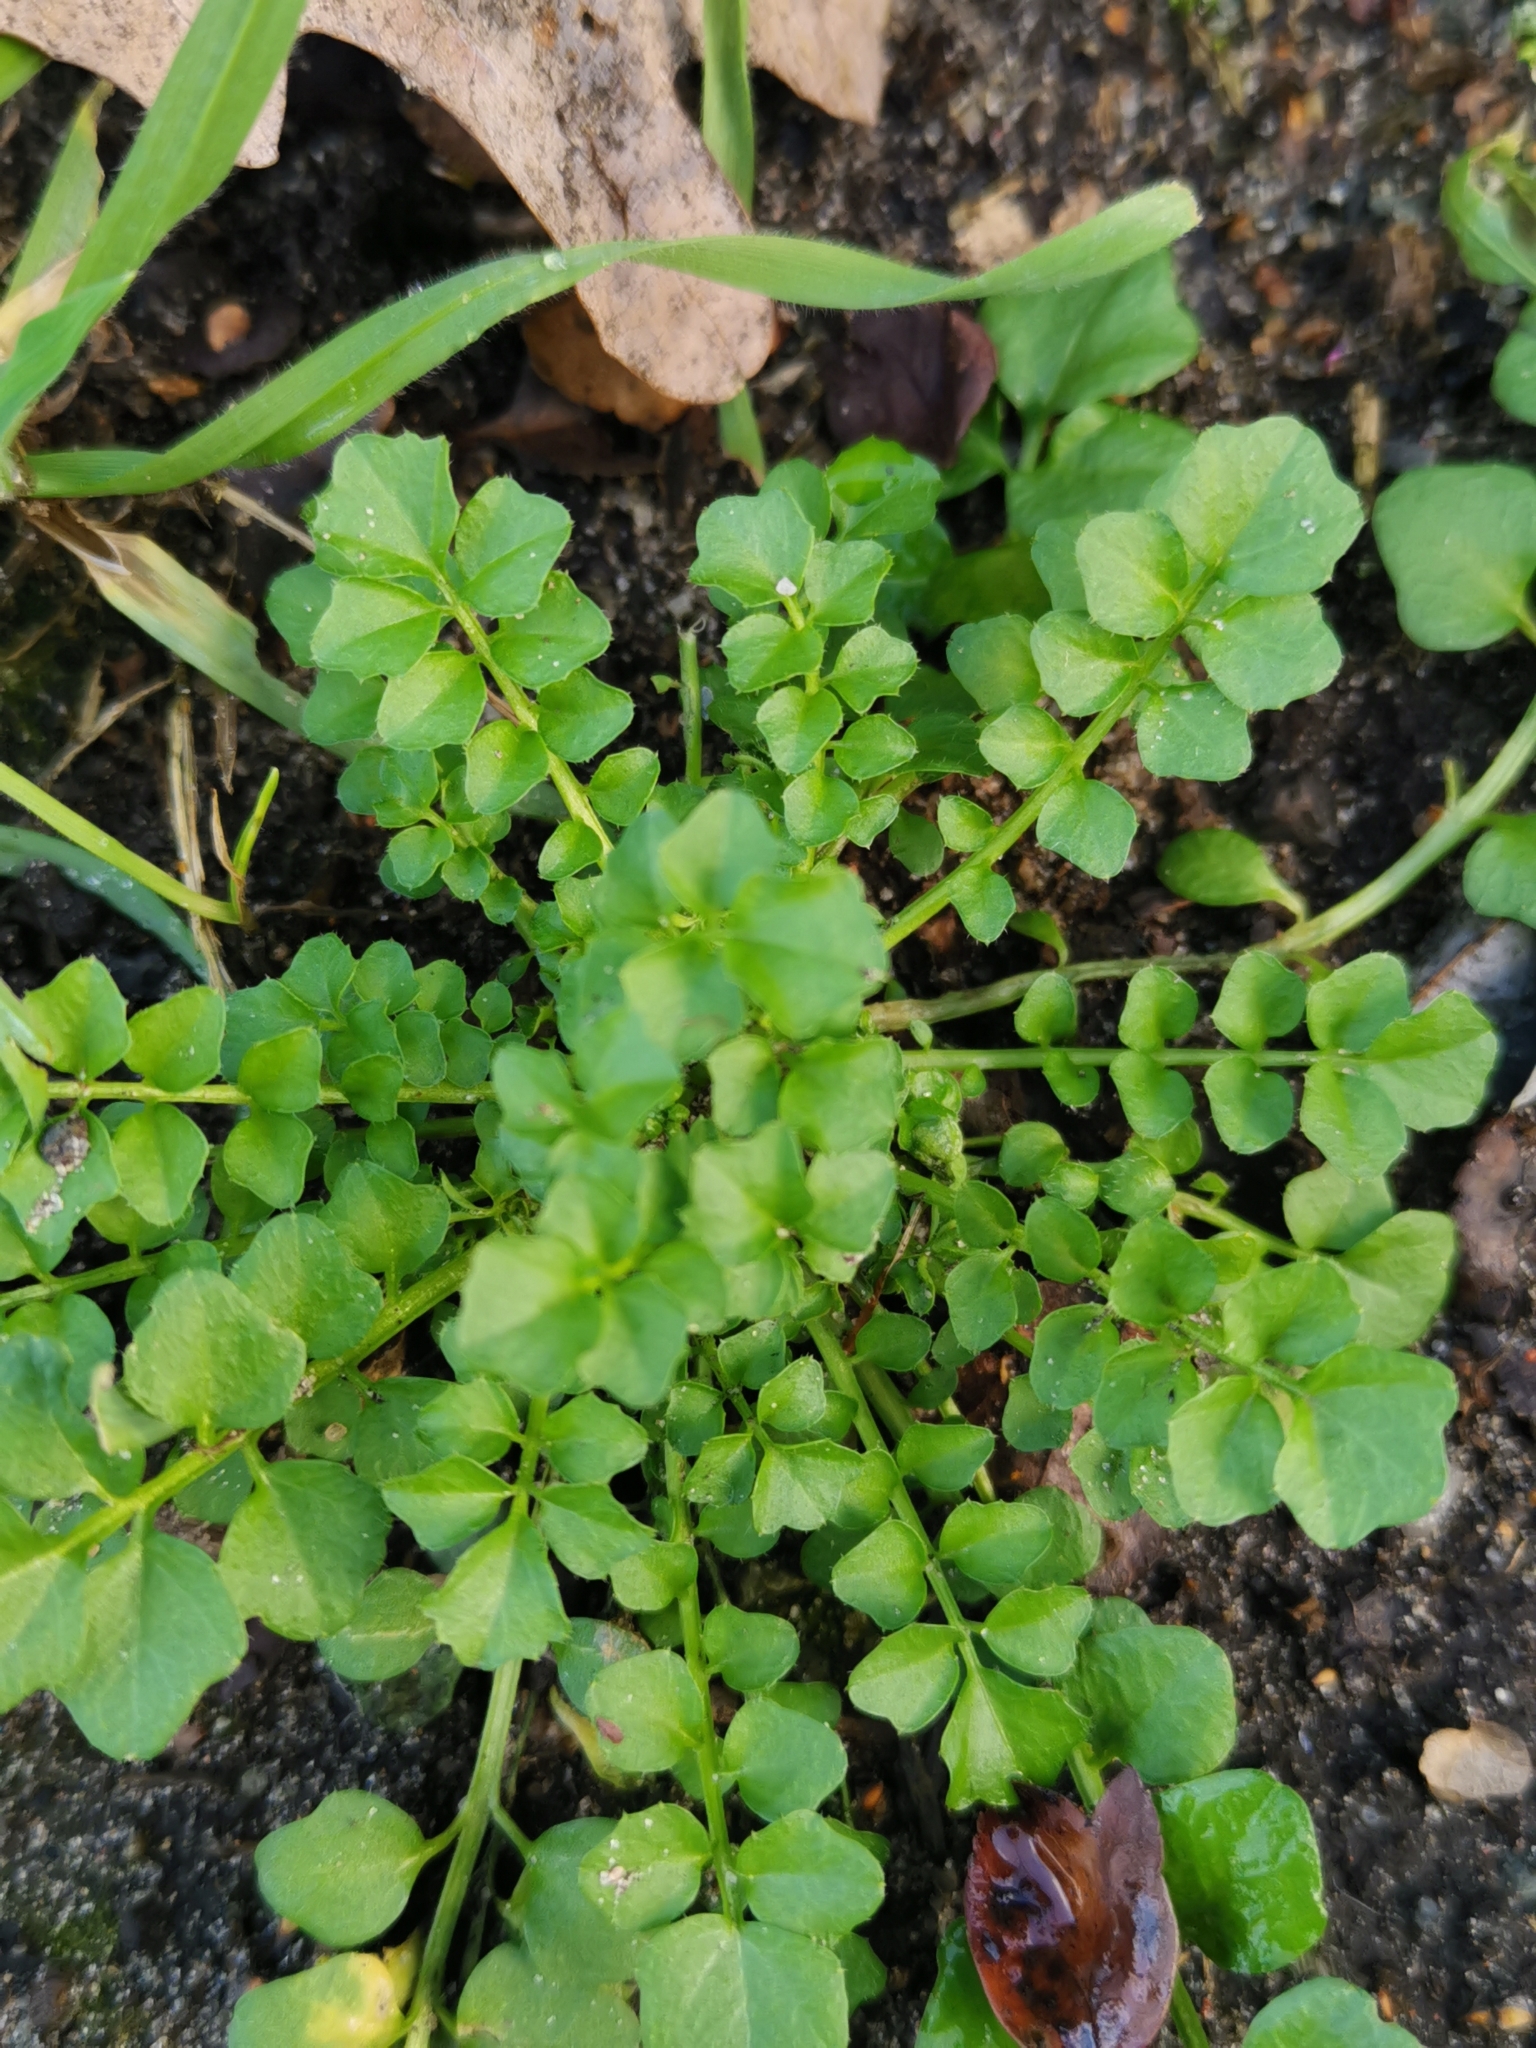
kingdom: Plantae
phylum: Tracheophyta
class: Magnoliopsida
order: Brassicales
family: Brassicaceae
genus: Cardamine
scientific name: Cardamine hirsuta
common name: Hairy bittercress
